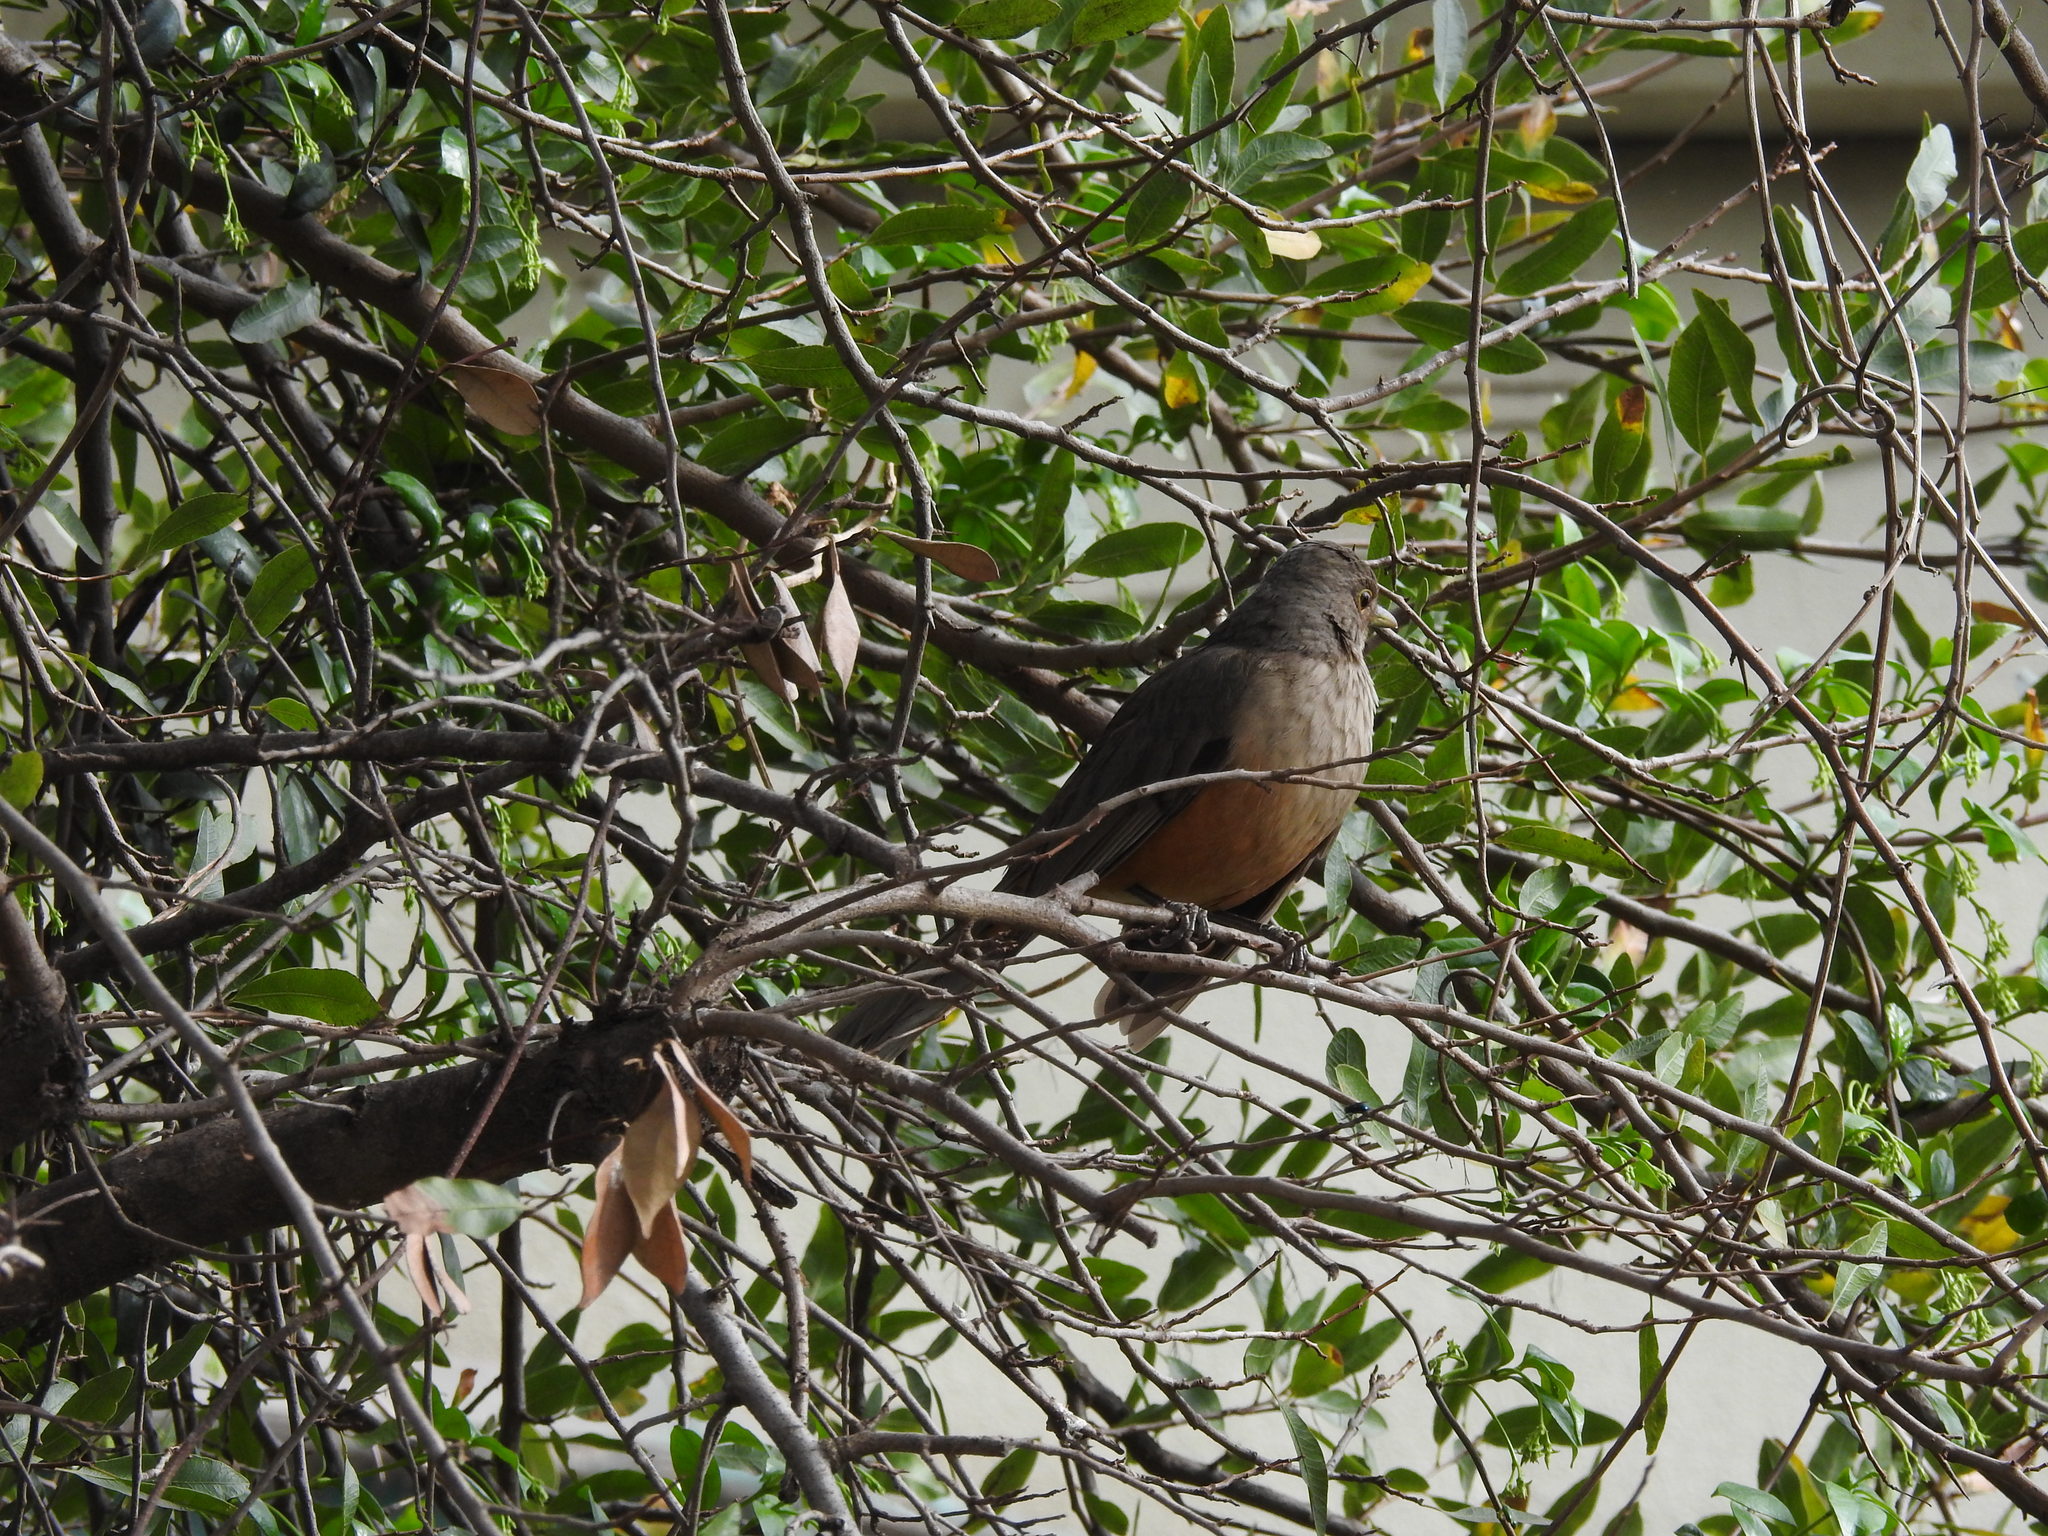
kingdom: Animalia
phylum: Chordata
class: Aves
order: Passeriformes
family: Turdidae
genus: Turdus
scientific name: Turdus rufiventris
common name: Rufous-bellied thrush
